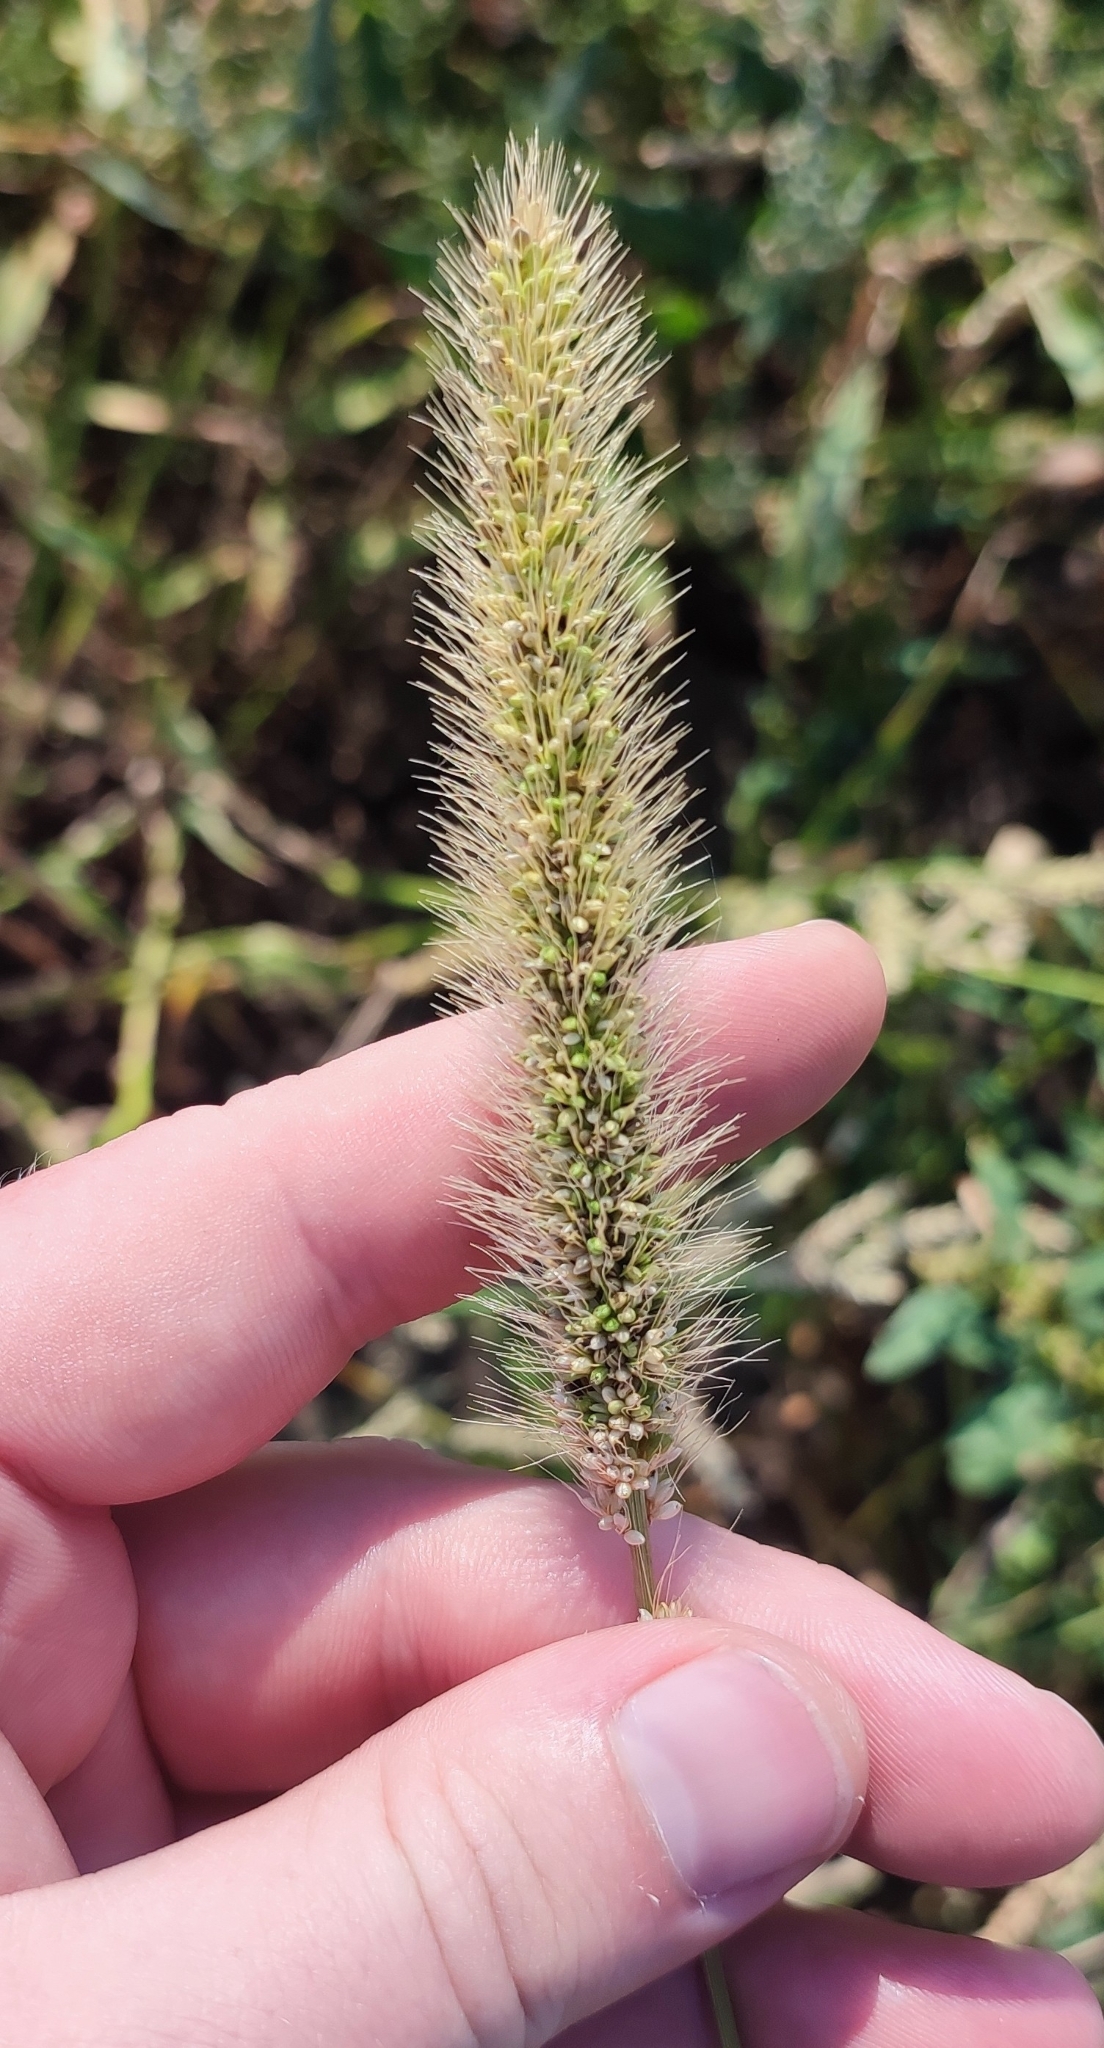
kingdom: Plantae
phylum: Tracheophyta
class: Liliopsida
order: Poales
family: Poaceae
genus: Setaria
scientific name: Setaria viridis
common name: Green bristlegrass
